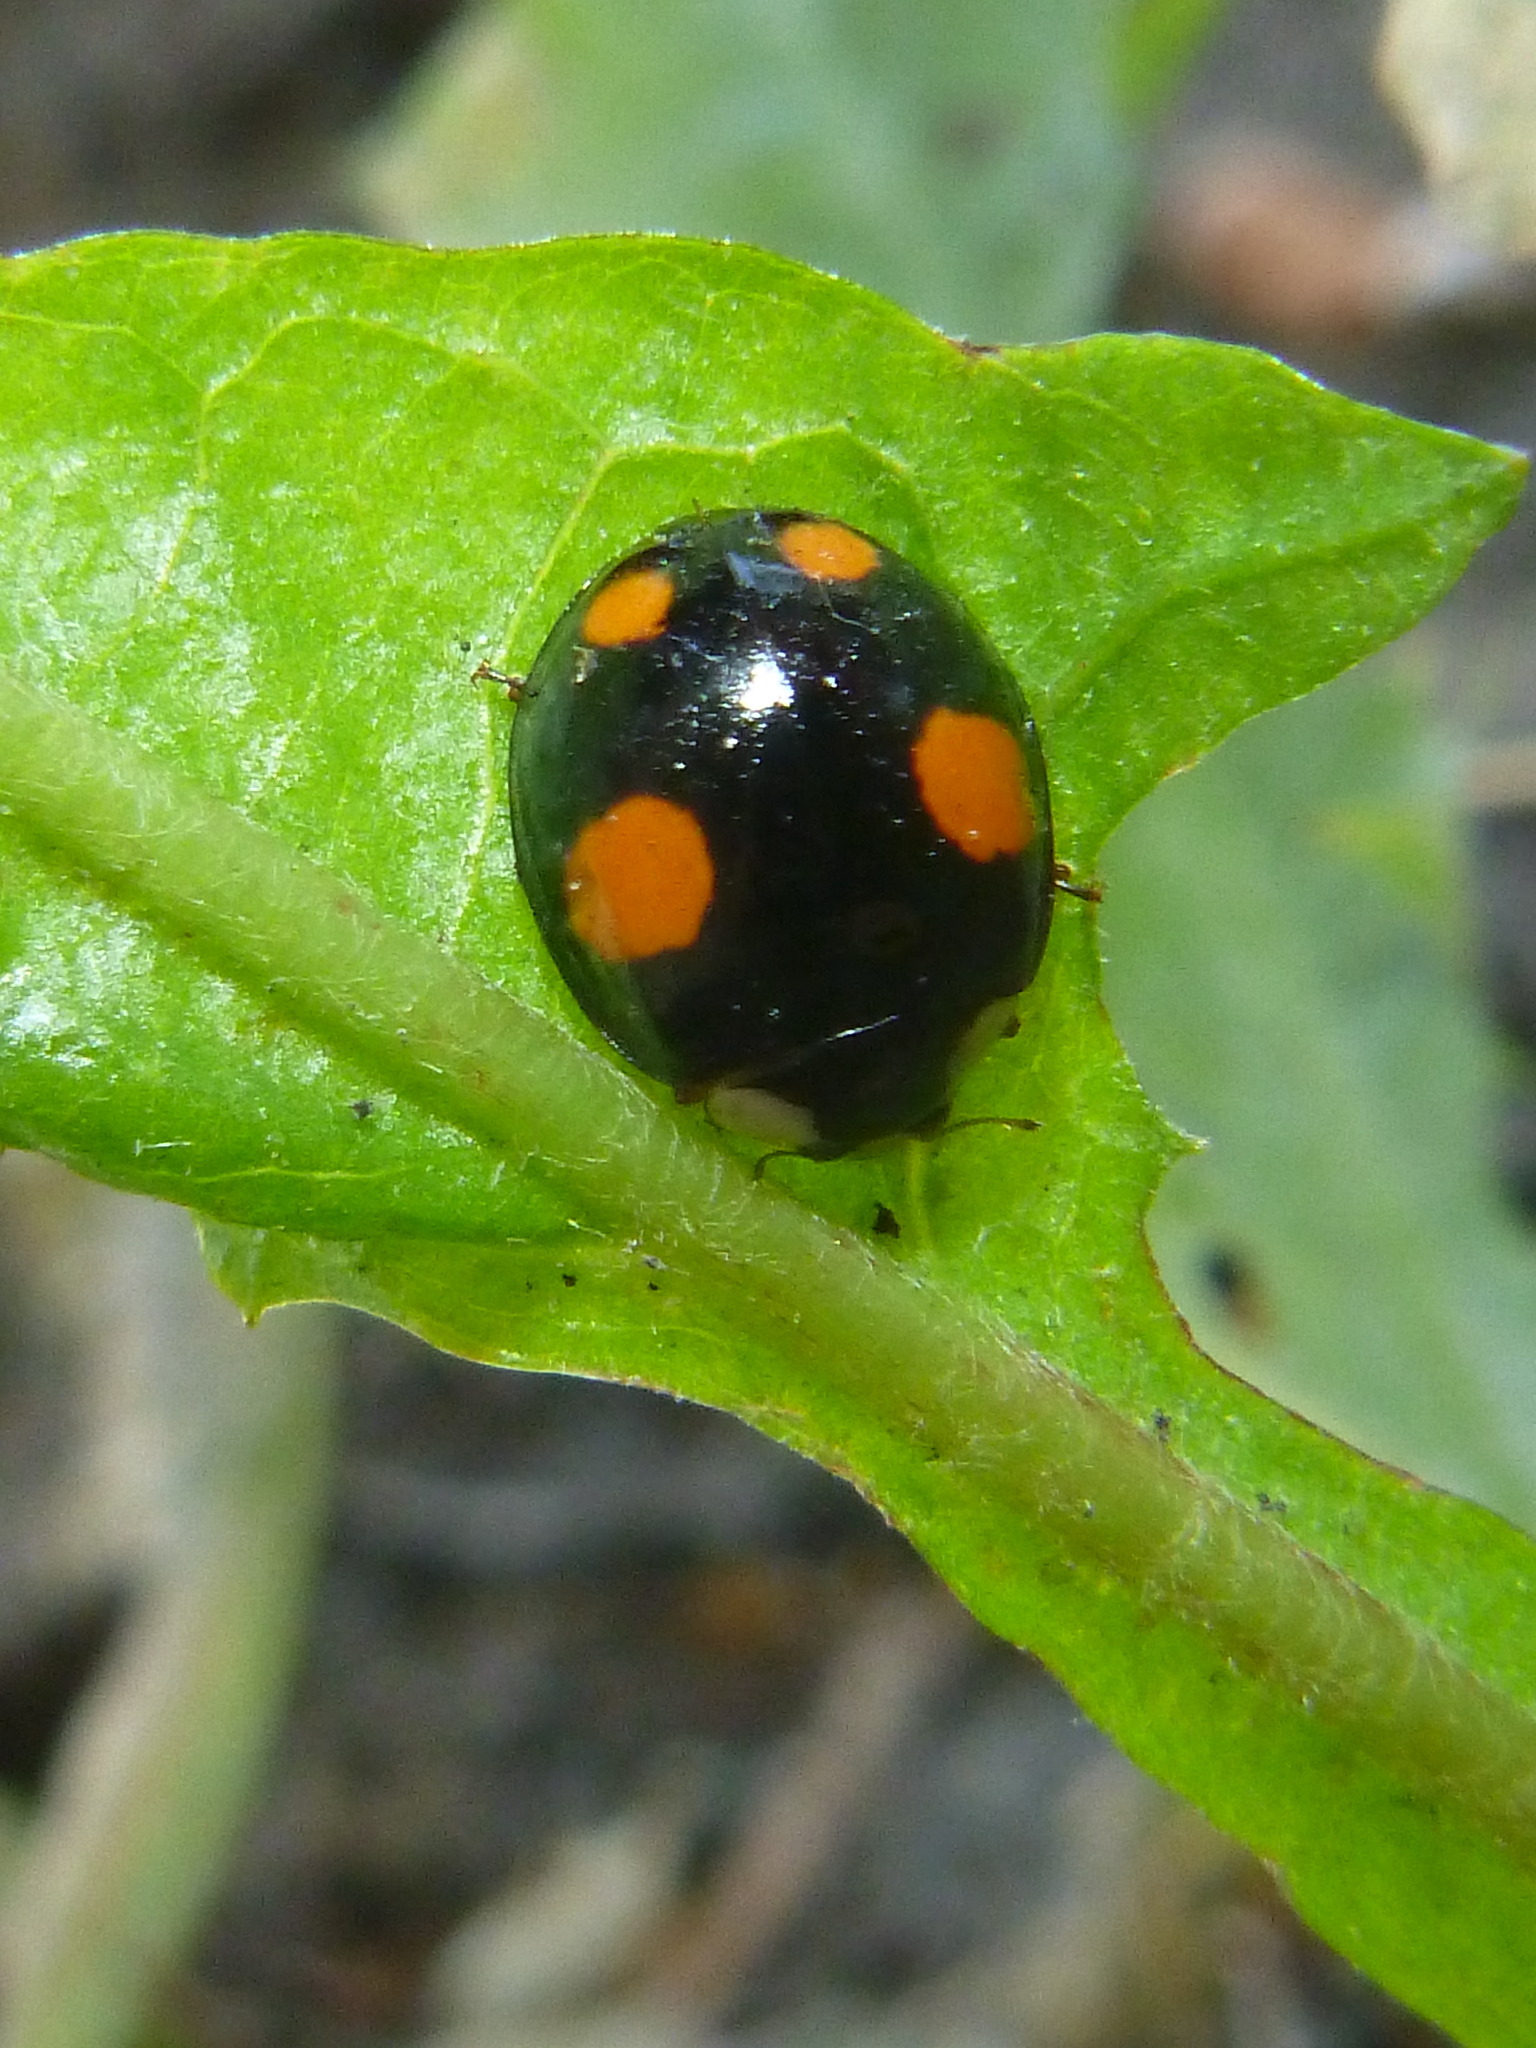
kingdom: Animalia
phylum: Arthropoda
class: Insecta
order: Coleoptera
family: Coccinellidae
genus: Harmonia
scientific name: Harmonia axyridis
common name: Harlequin ladybird
